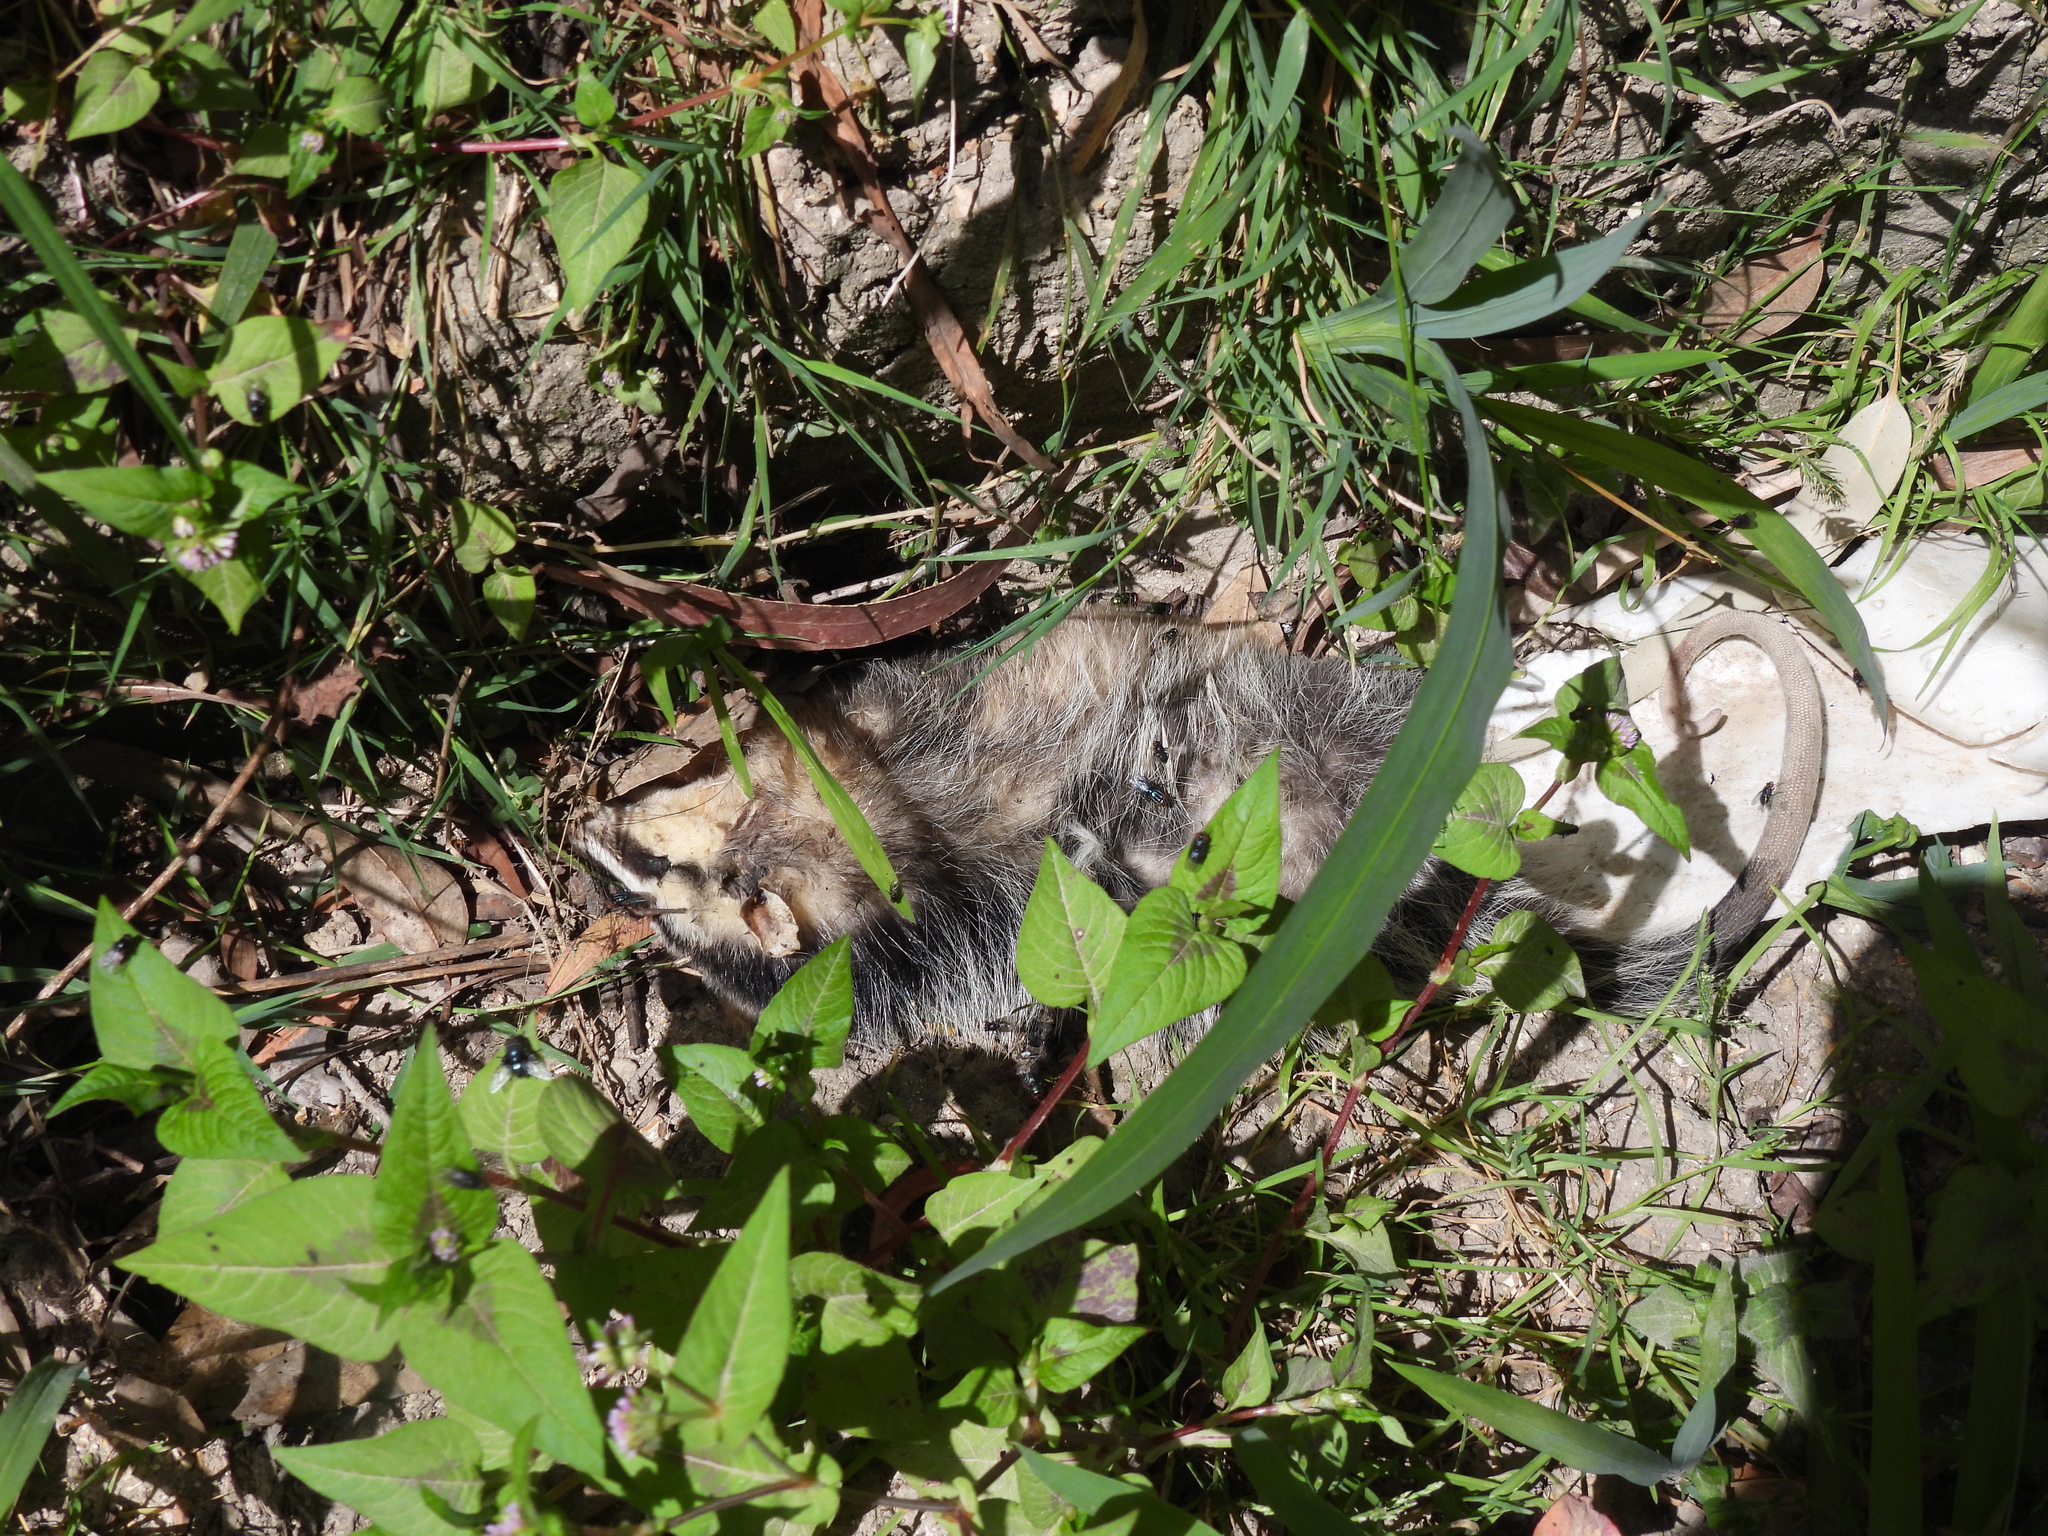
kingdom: Animalia
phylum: Chordata
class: Mammalia
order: Didelphimorphia
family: Didelphidae
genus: Didelphis
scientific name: Didelphis pernigra
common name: Andean white-eared opossum
